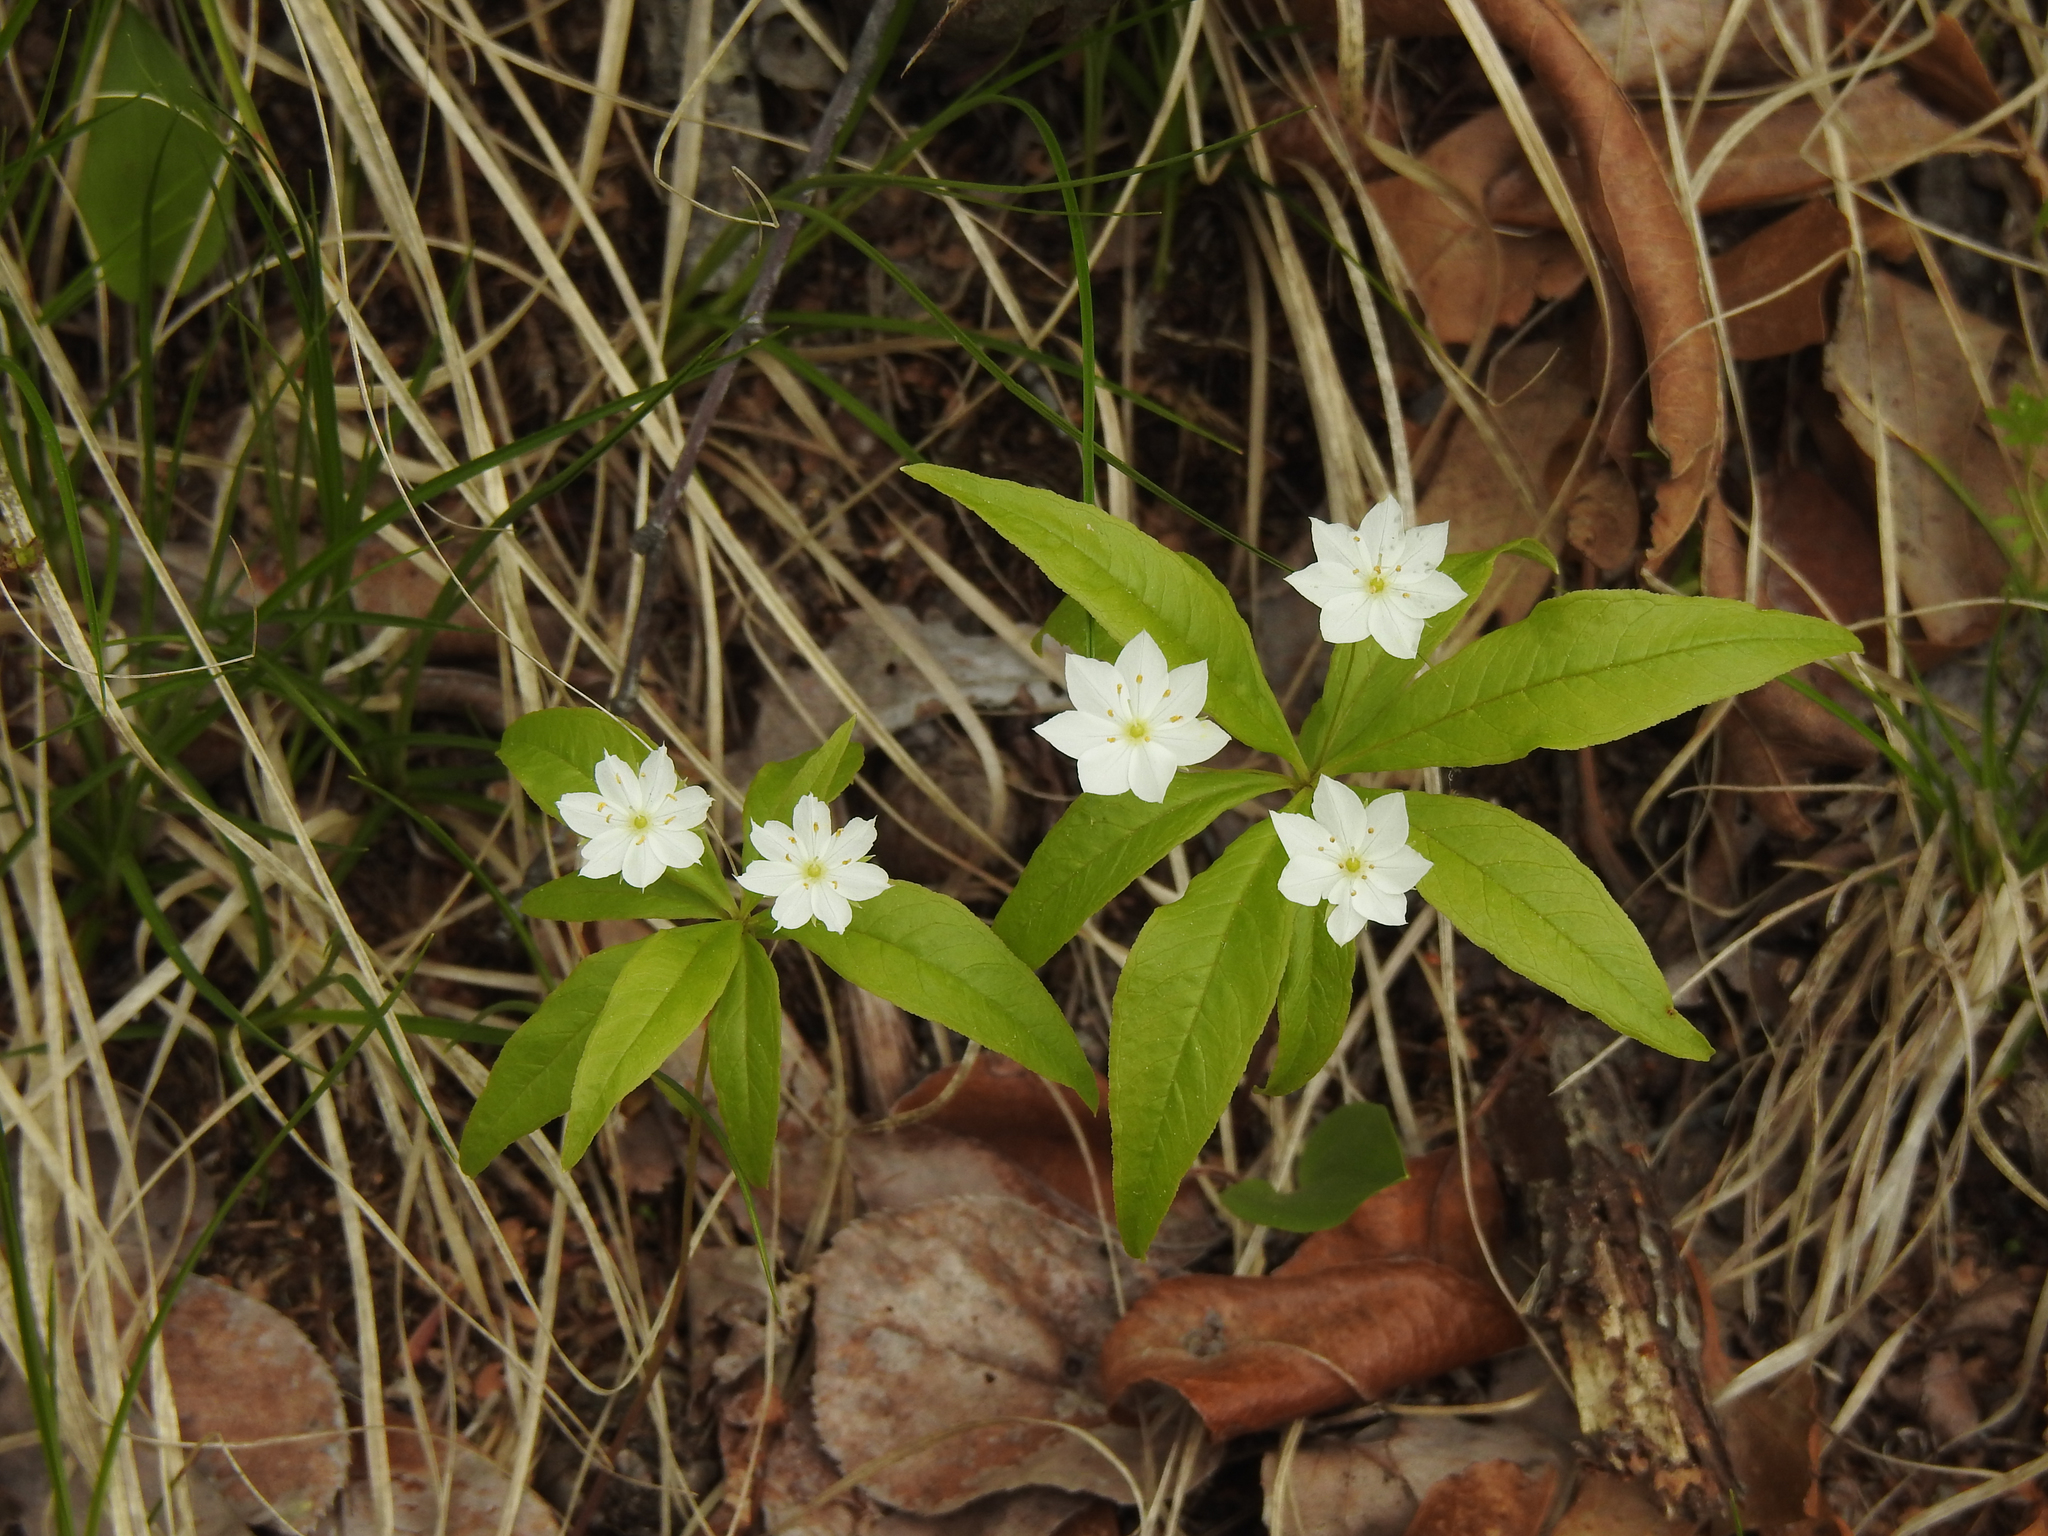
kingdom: Plantae
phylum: Tracheophyta
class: Magnoliopsida
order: Ericales
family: Primulaceae
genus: Lysimachia
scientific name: Lysimachia borealis
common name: American starflower
